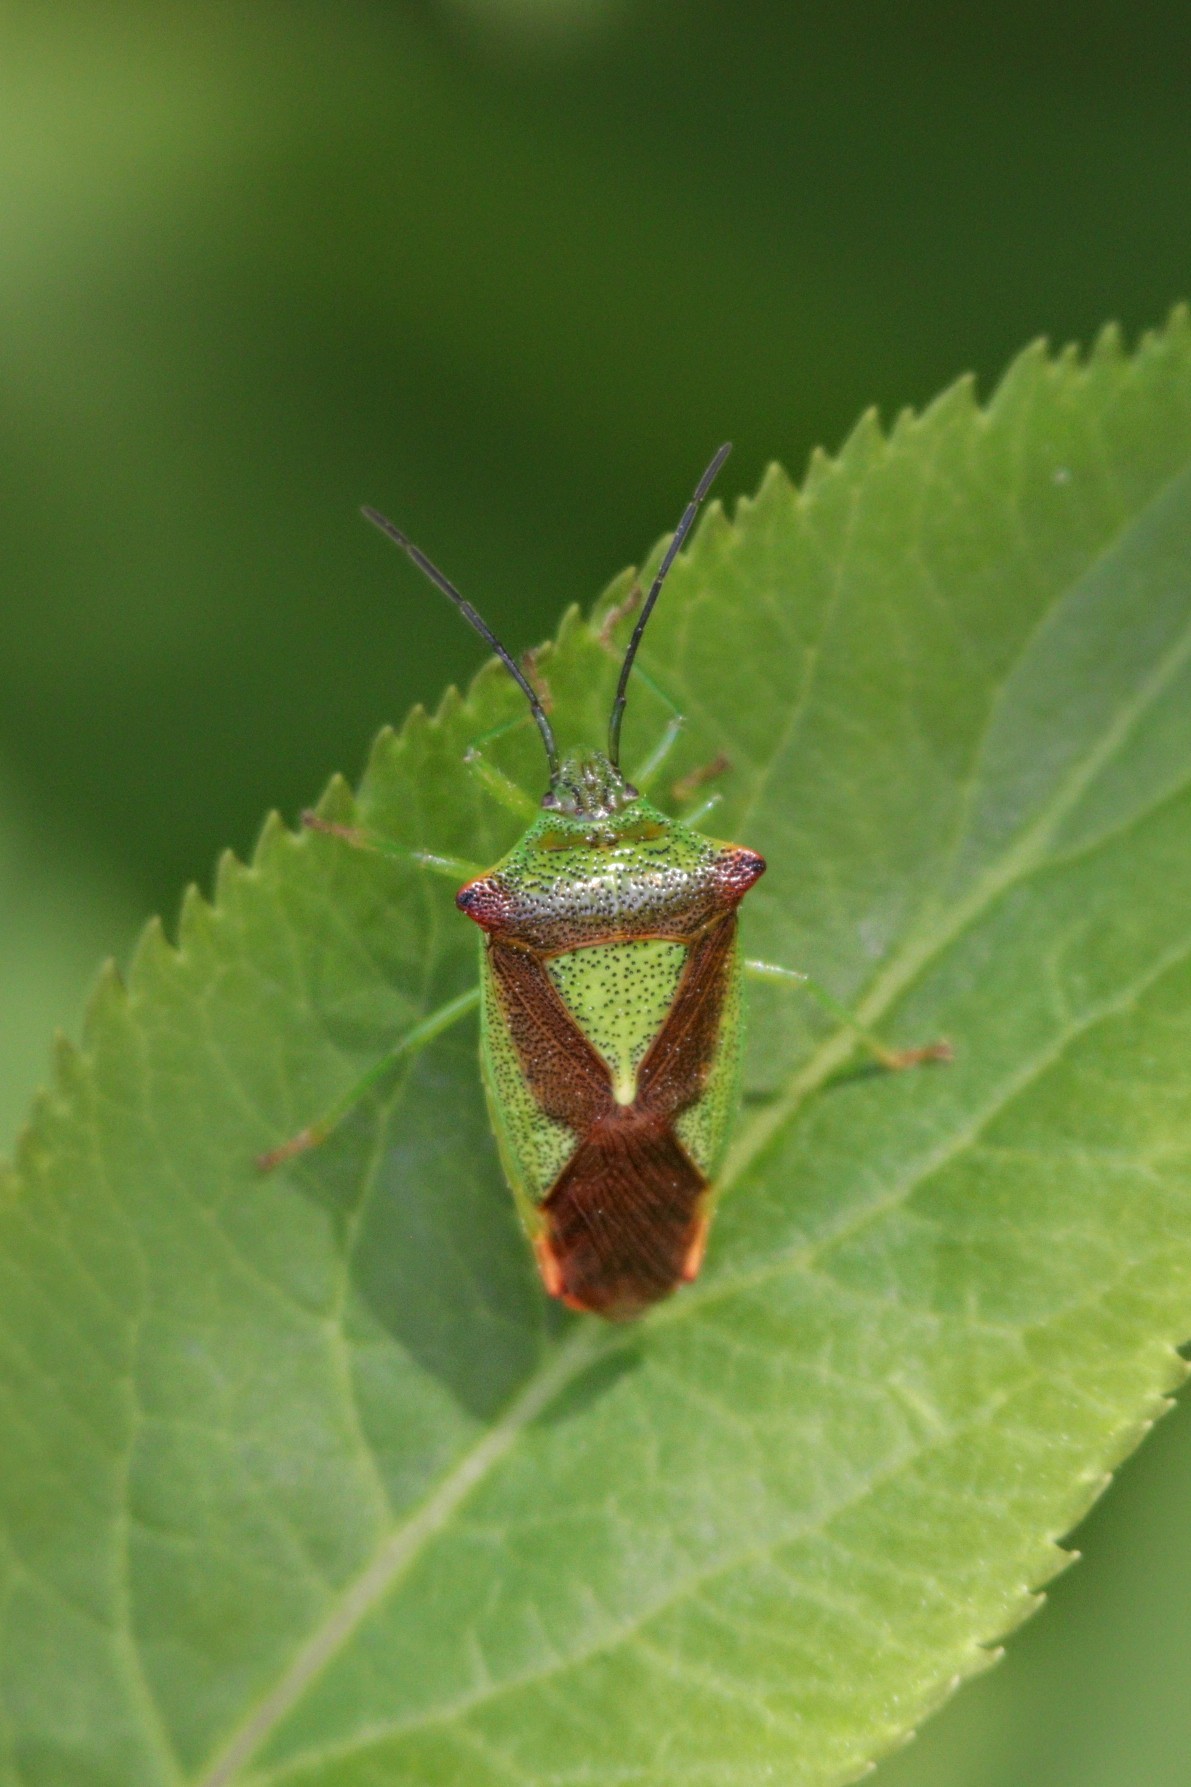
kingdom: Animalia
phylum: Arthropoda
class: Insecta
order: Hemiptera
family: Acanthosomatidae
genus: Acanthosoma
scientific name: Acanthosoma haemorrhoidale
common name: Hawthorn shieldbug
